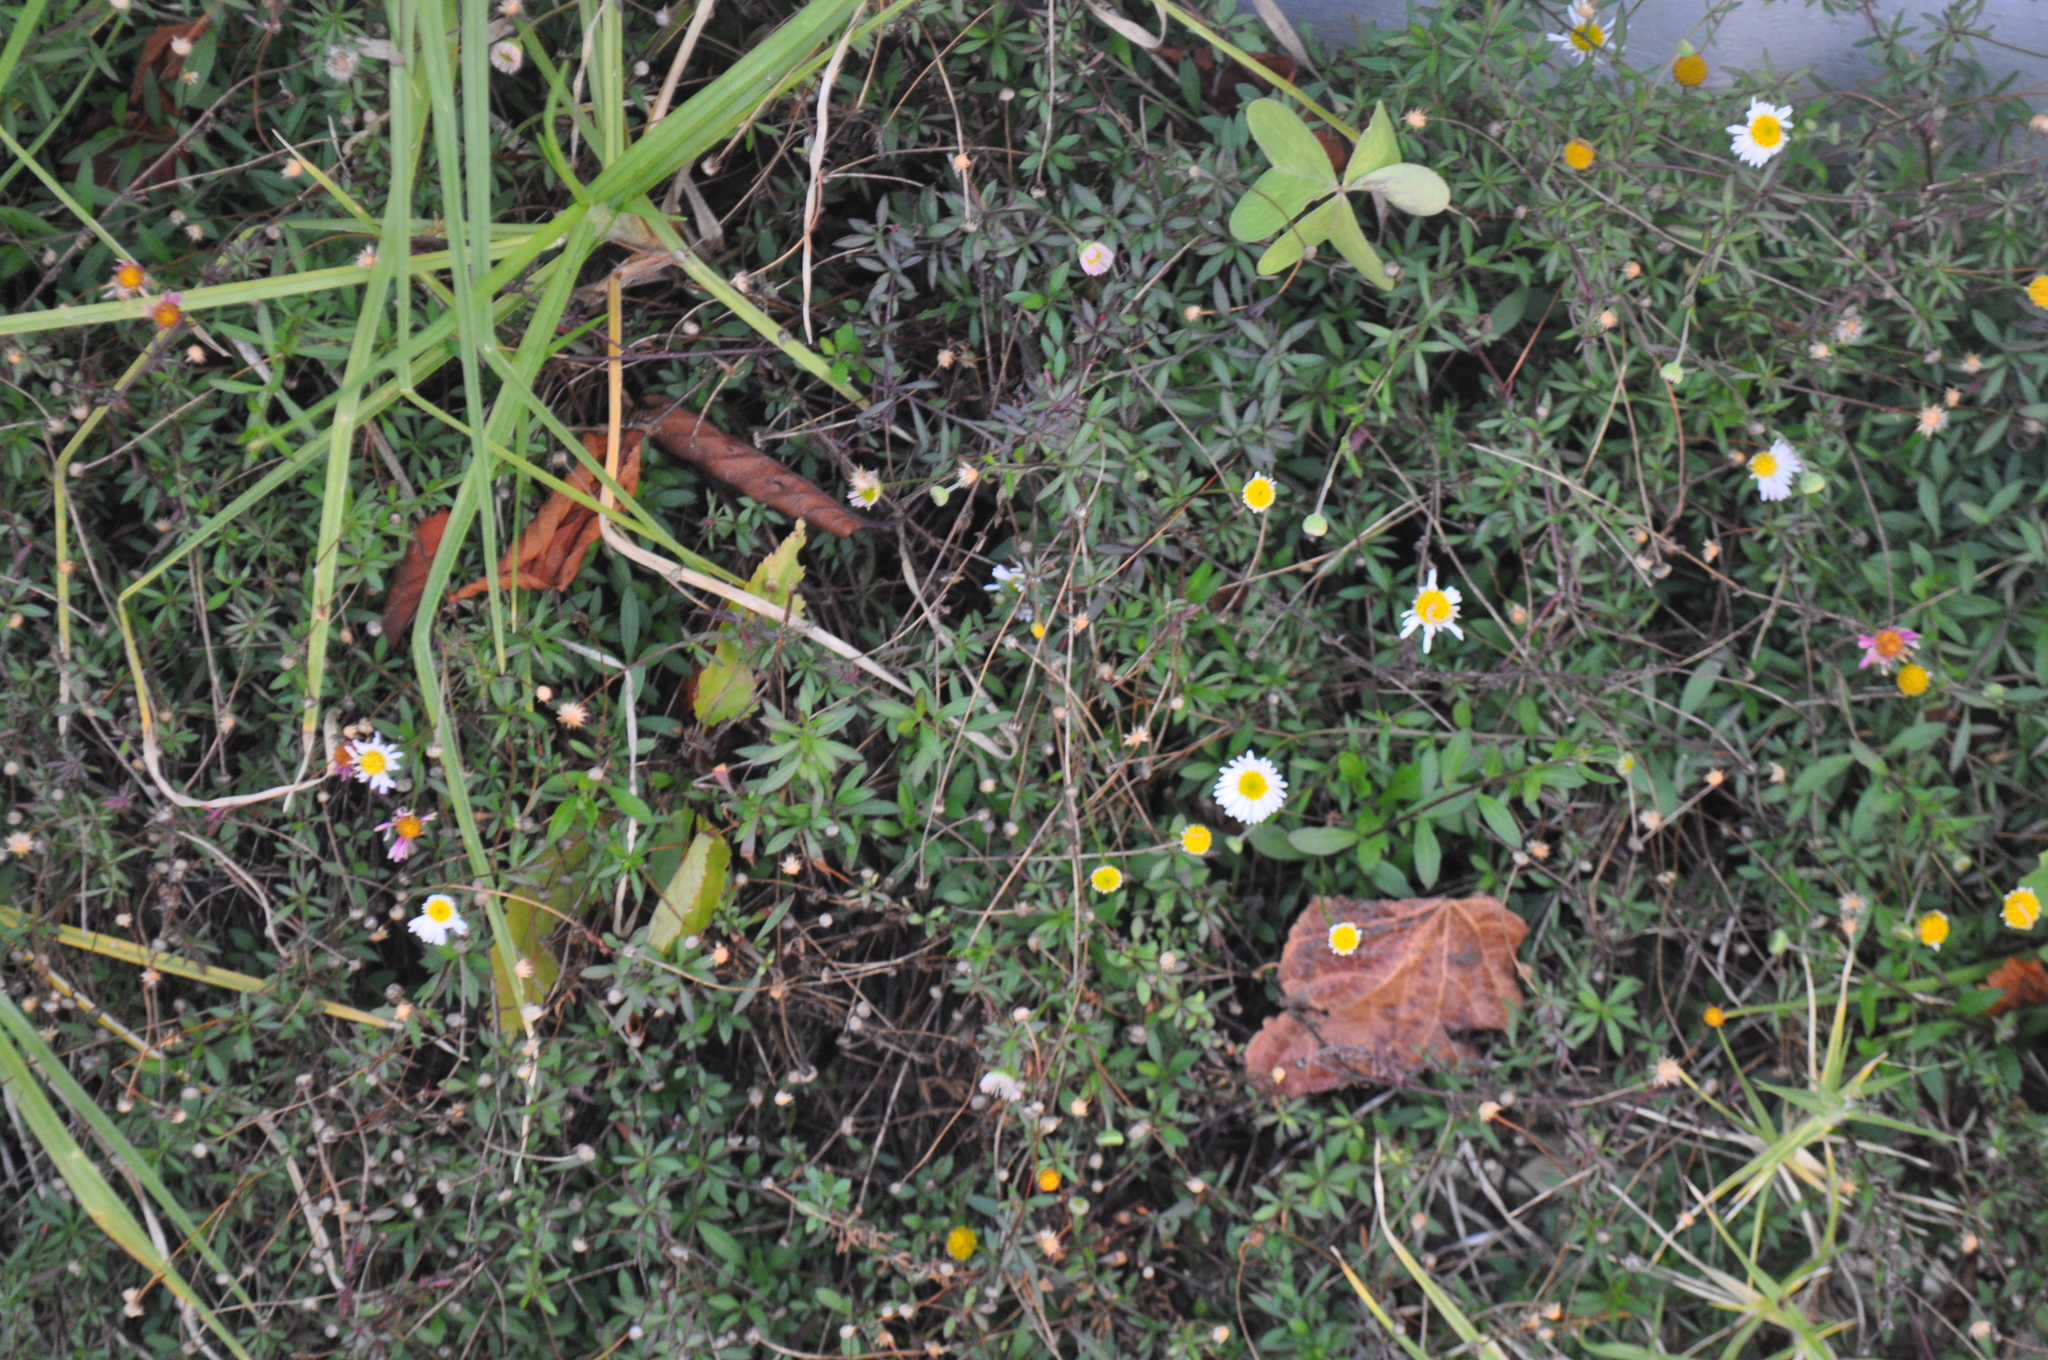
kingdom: Plantae
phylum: Tracheophyta
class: Magnoliopsida
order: Asterales
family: Asteraceae
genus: Erigeron
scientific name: Erigeron karvinskianus
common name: Mexican fleabane
